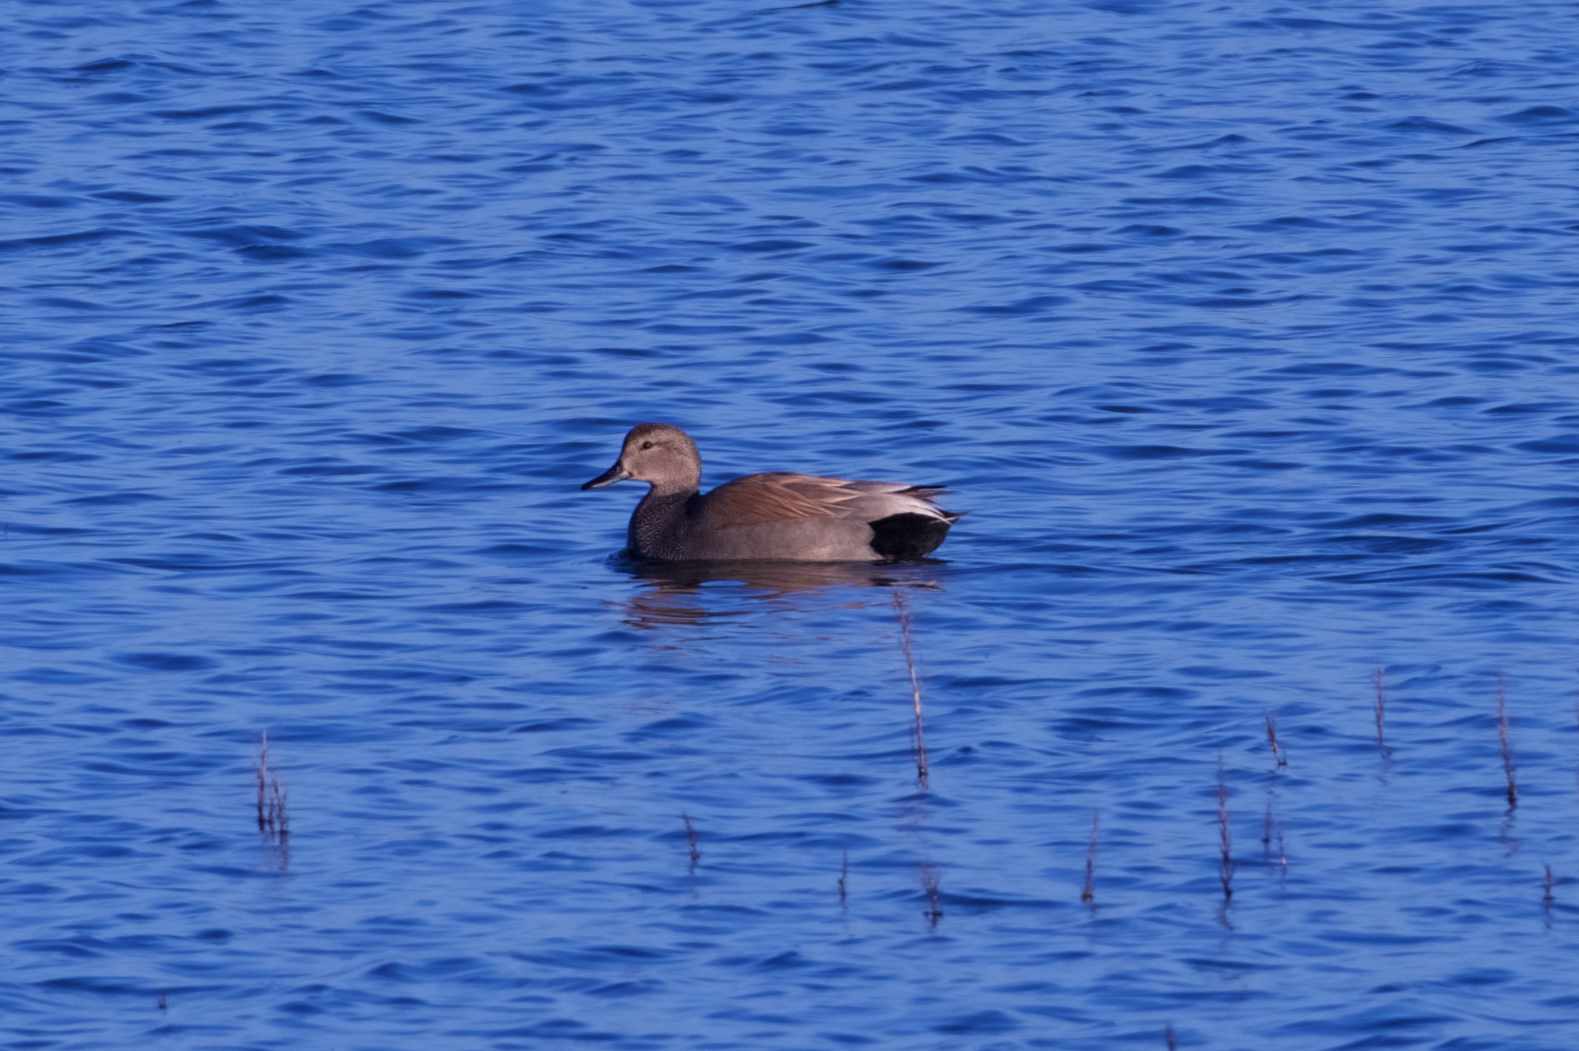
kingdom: Animalia
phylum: Chordata
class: Aves
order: Anseriformes
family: Anatidae
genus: Mareca
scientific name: Mareca strepera
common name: Gadwall
